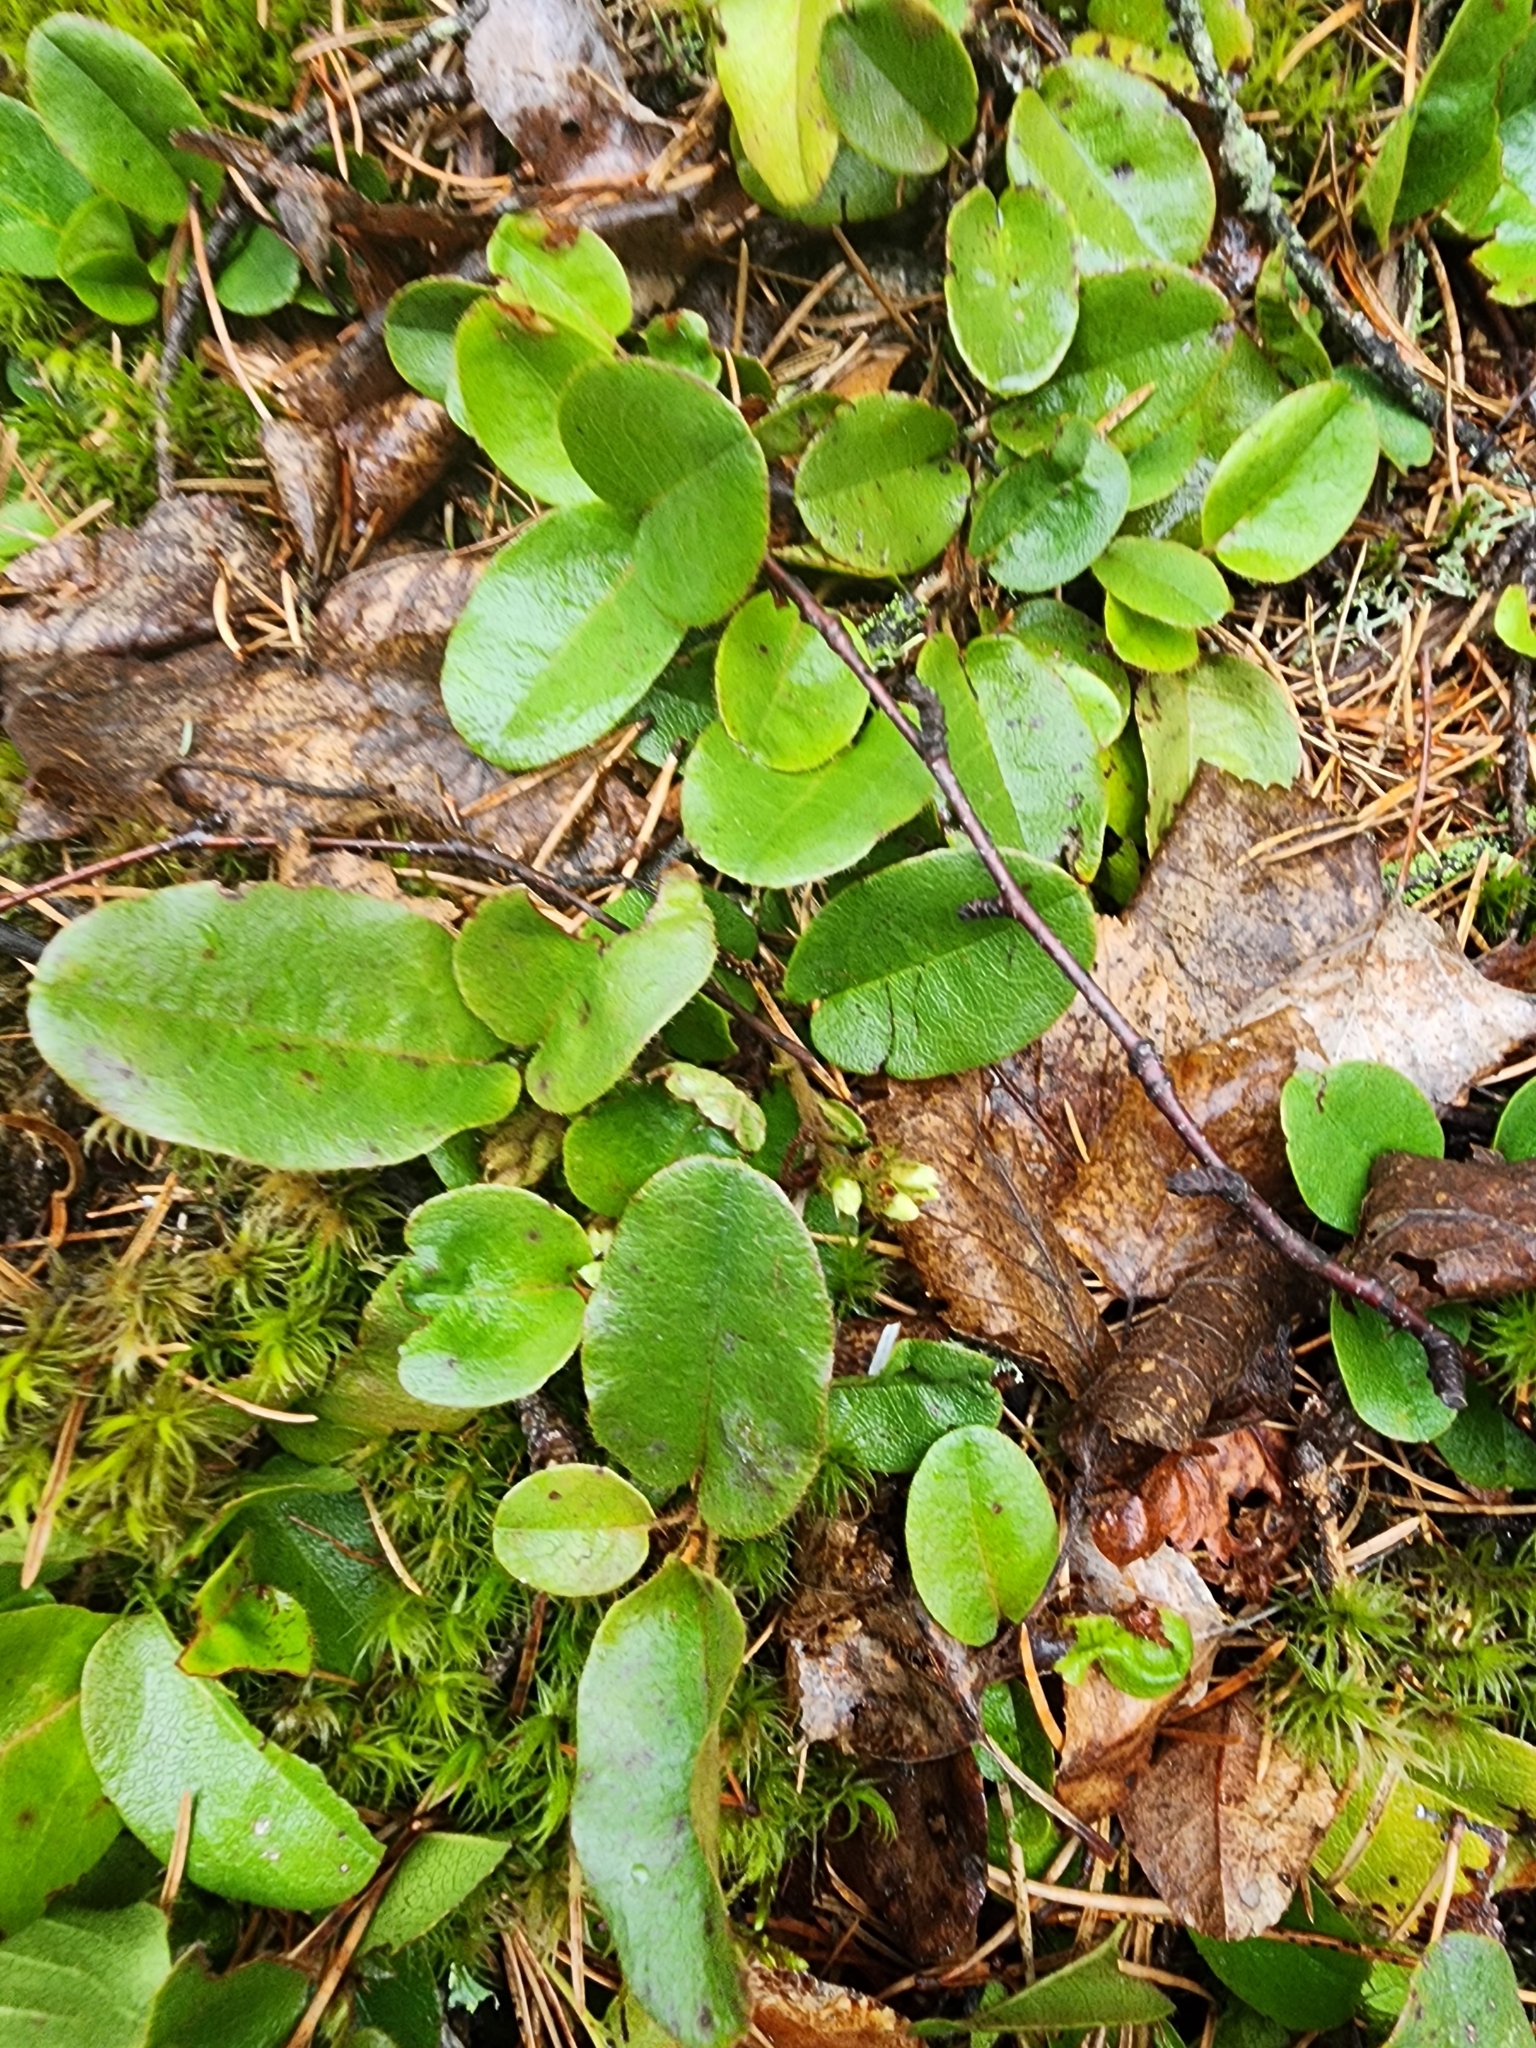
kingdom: Plantae
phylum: Tracheophyta
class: Magnoliopsida
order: Ericales
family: Ericaceae
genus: Epigaea
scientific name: Epigaea repens
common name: Gravelroot
